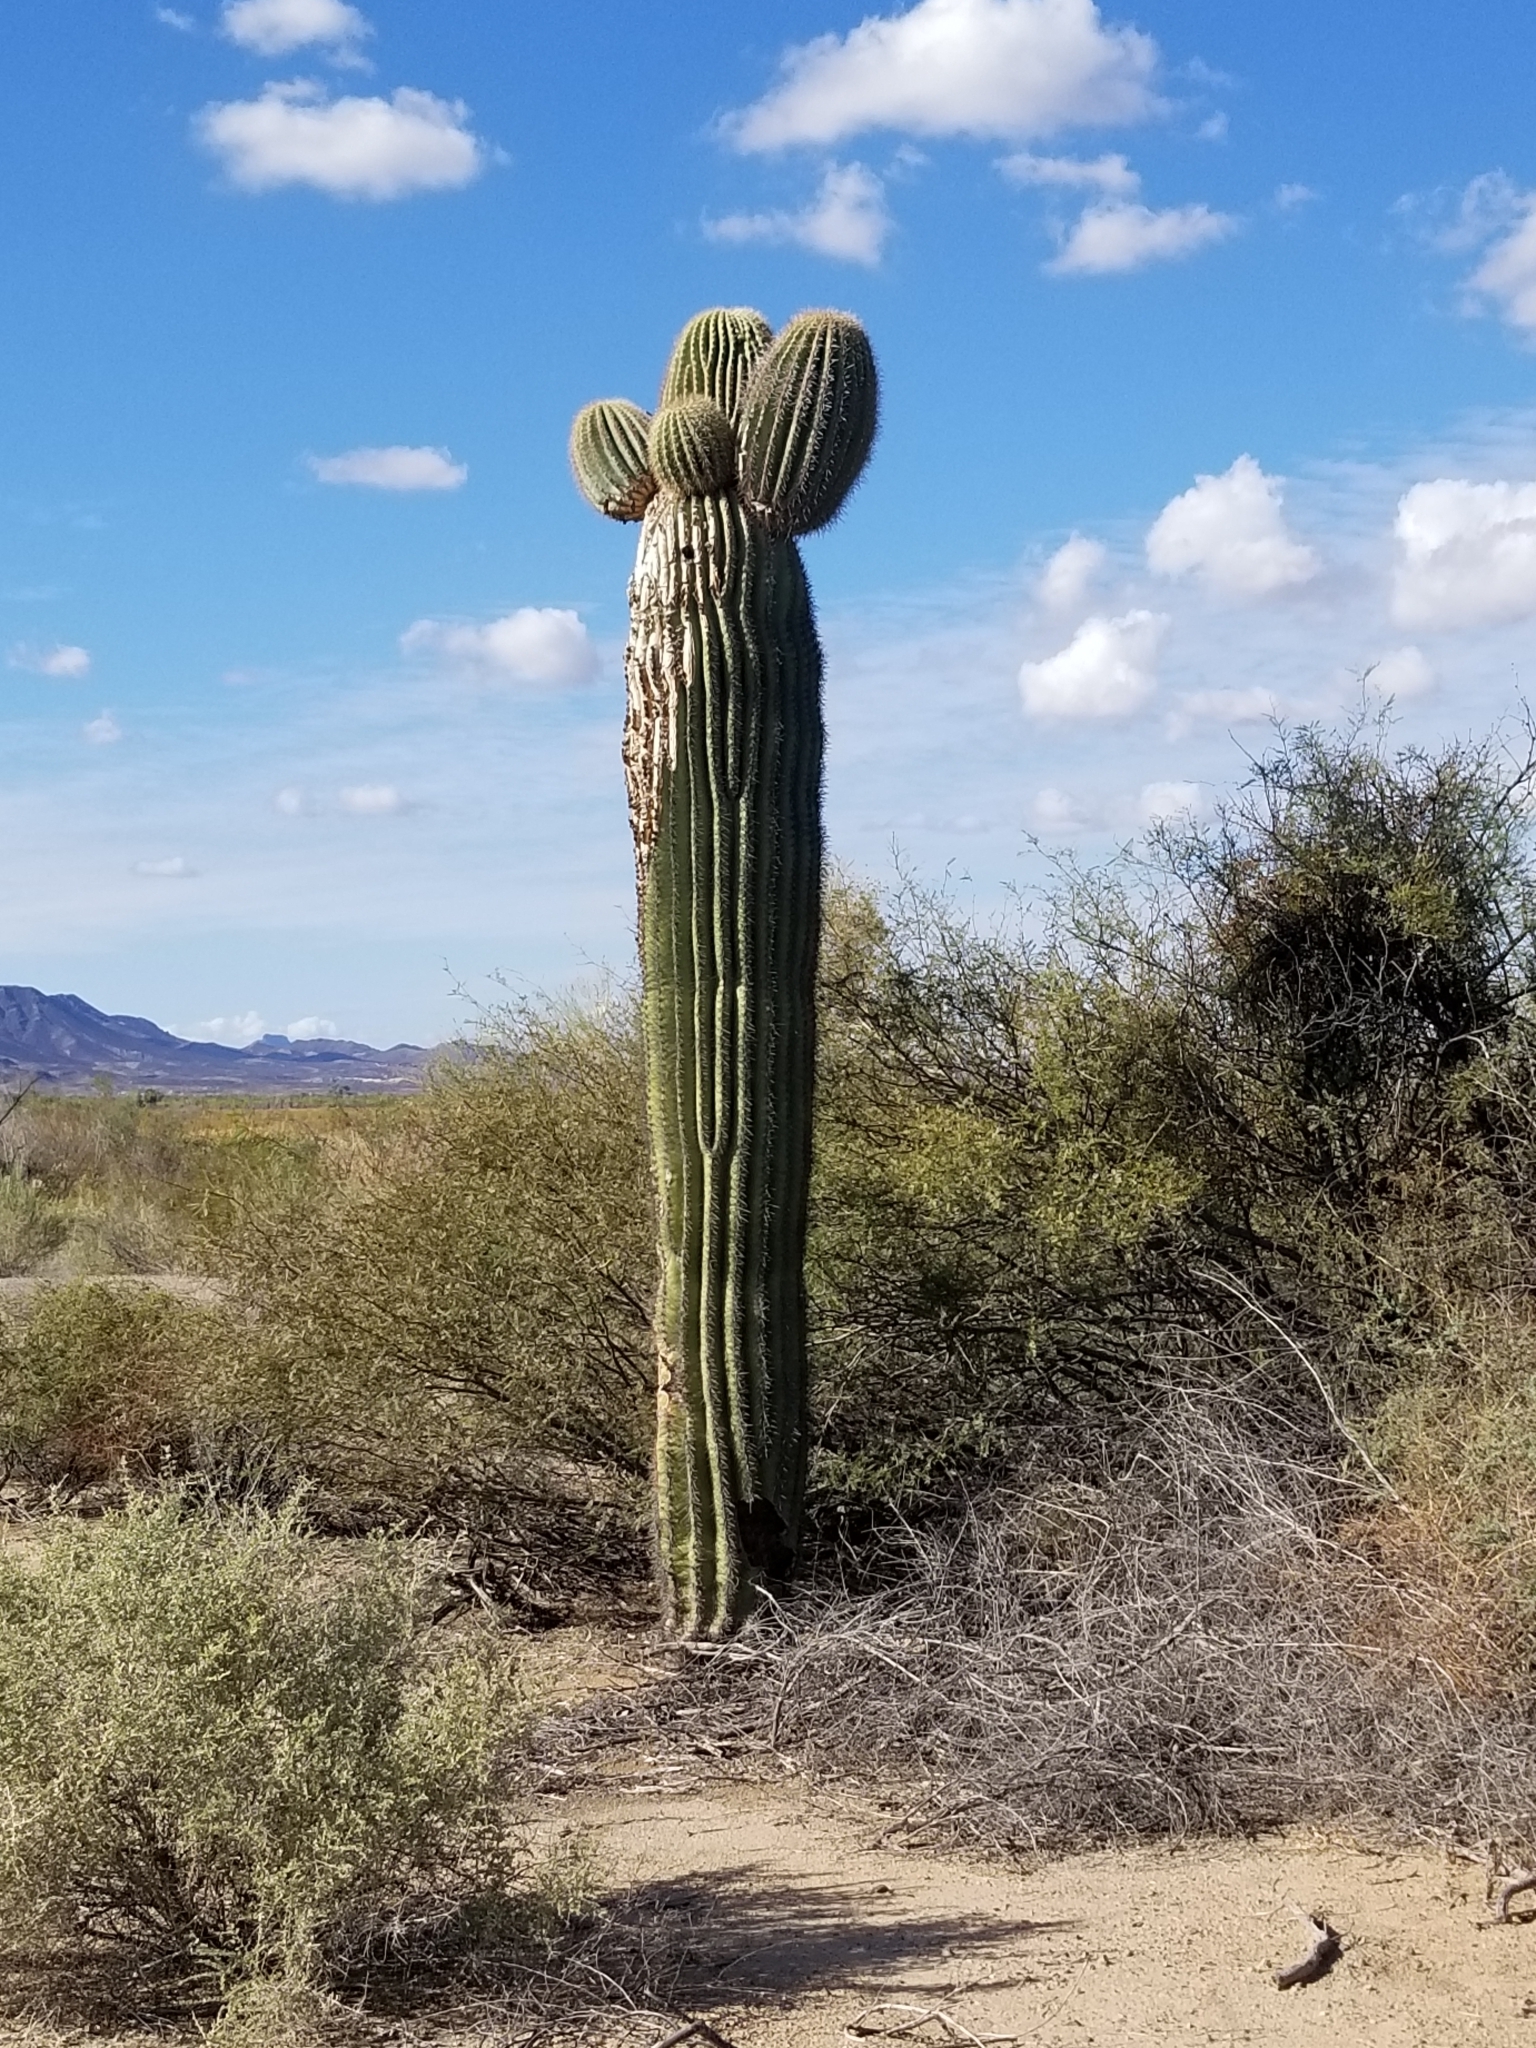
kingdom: Plantae
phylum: Tracheophyta
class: Magnoliopsida
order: Caryophyllales
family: Cactaceae
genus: Carnegiea
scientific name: Carnegiea gigantea
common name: Saguaro
